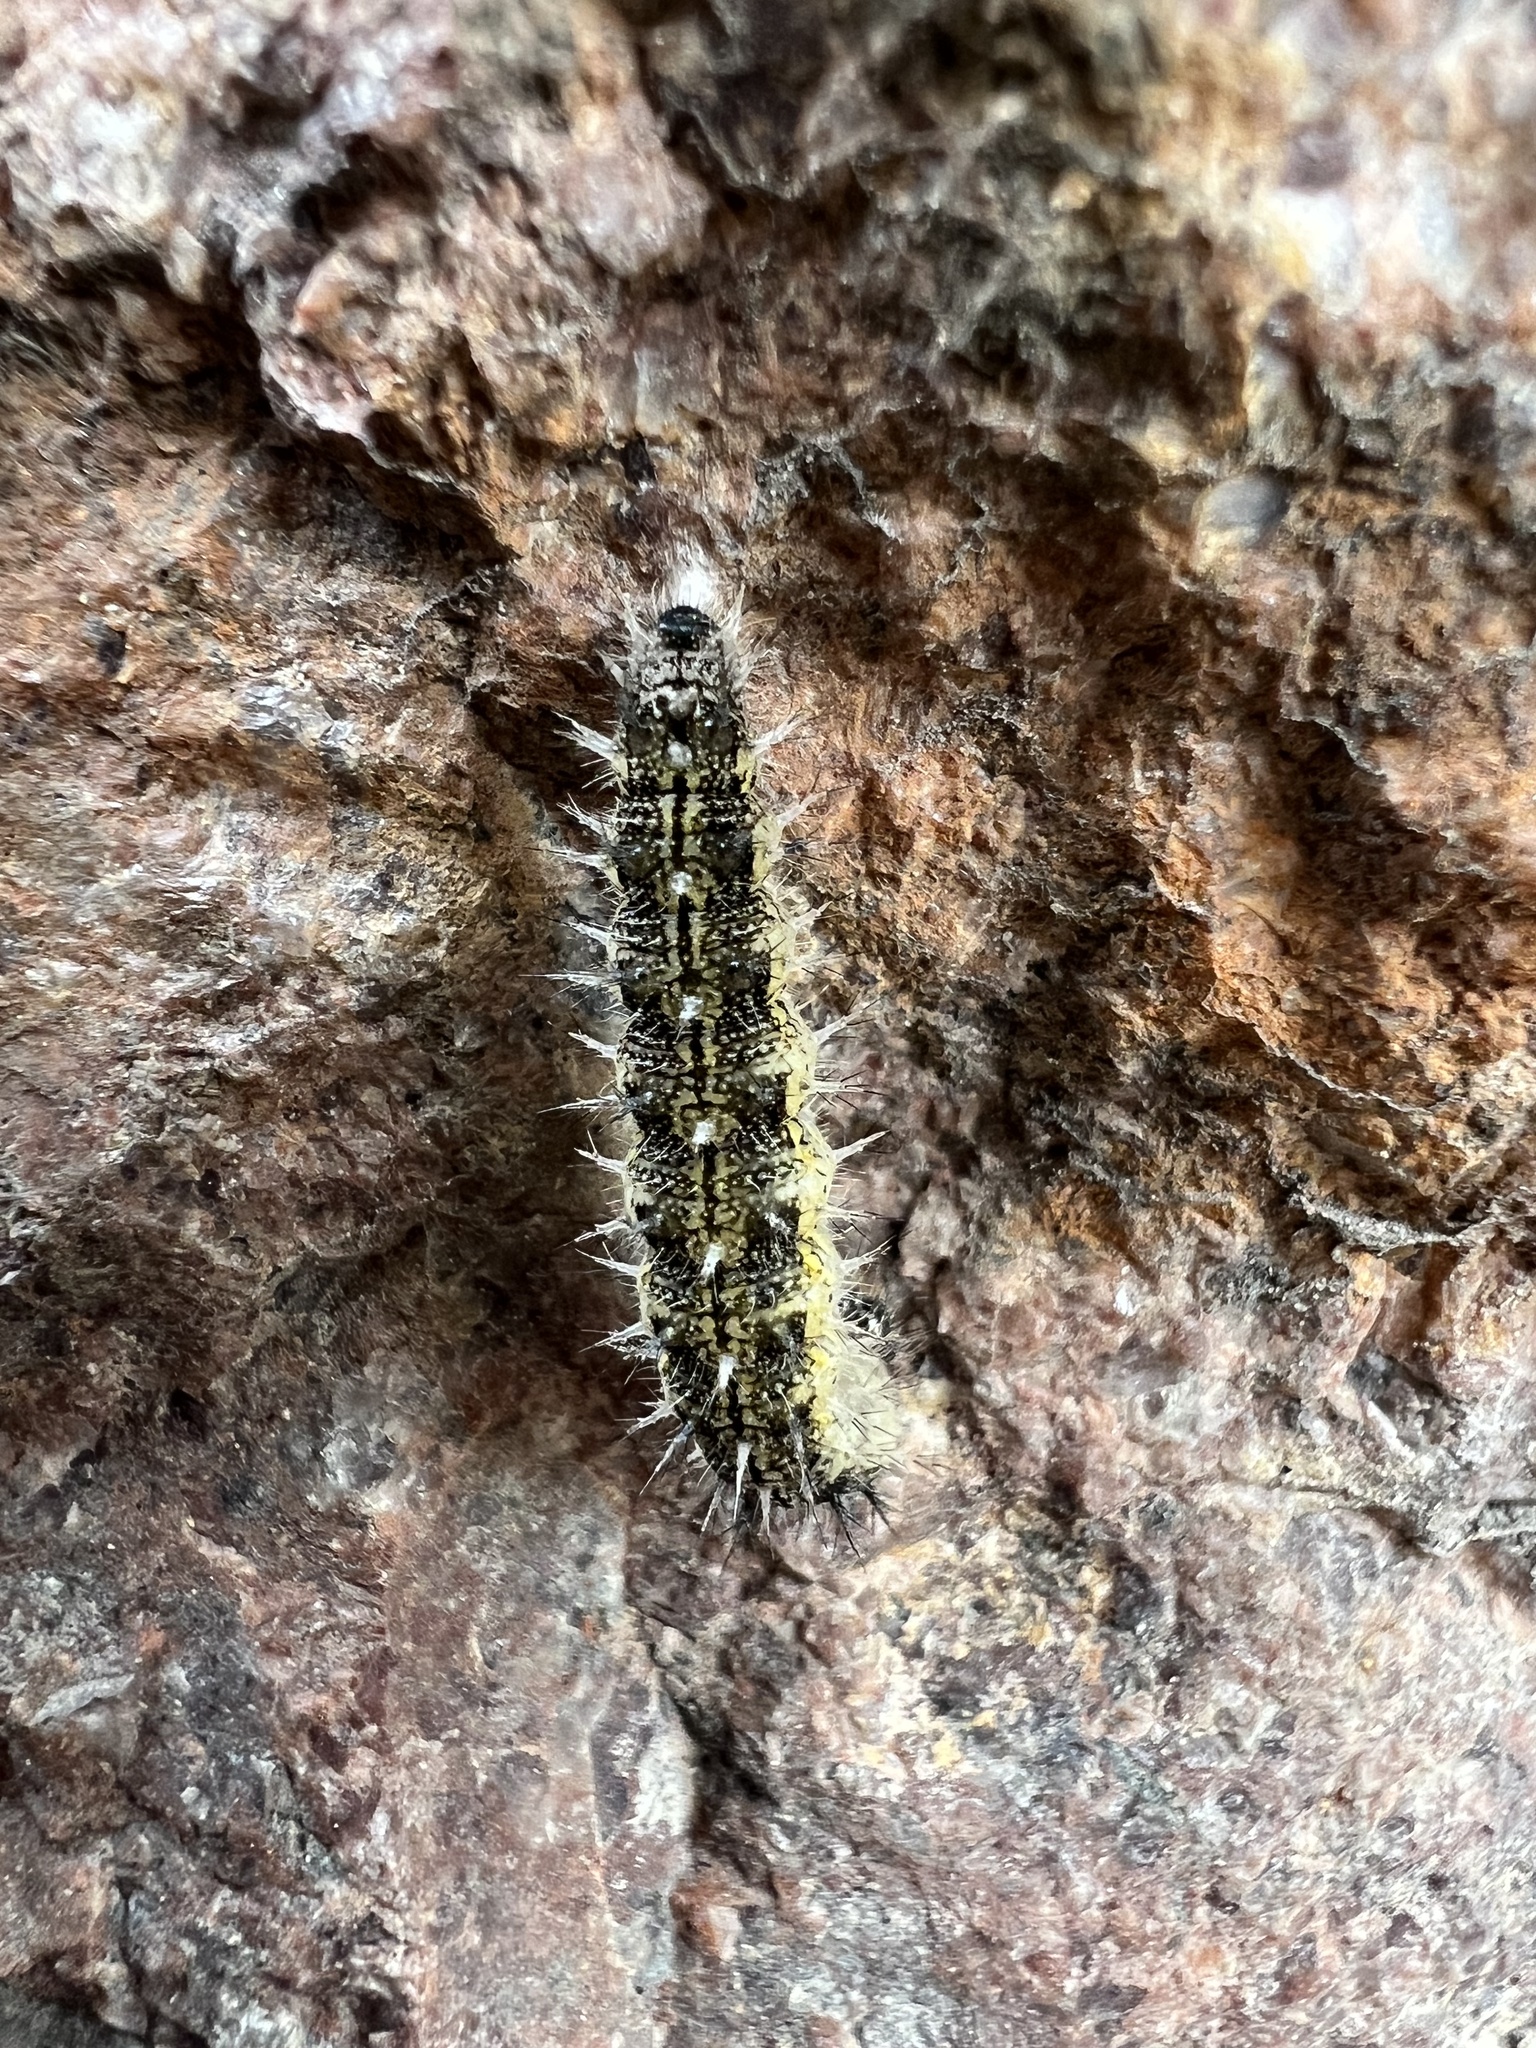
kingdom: Animalia
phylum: Arthropoda
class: Insecta
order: Lepidoptera
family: Nymphalidae
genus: Aglais
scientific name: Aglais urticae
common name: Small tortoiseshell
